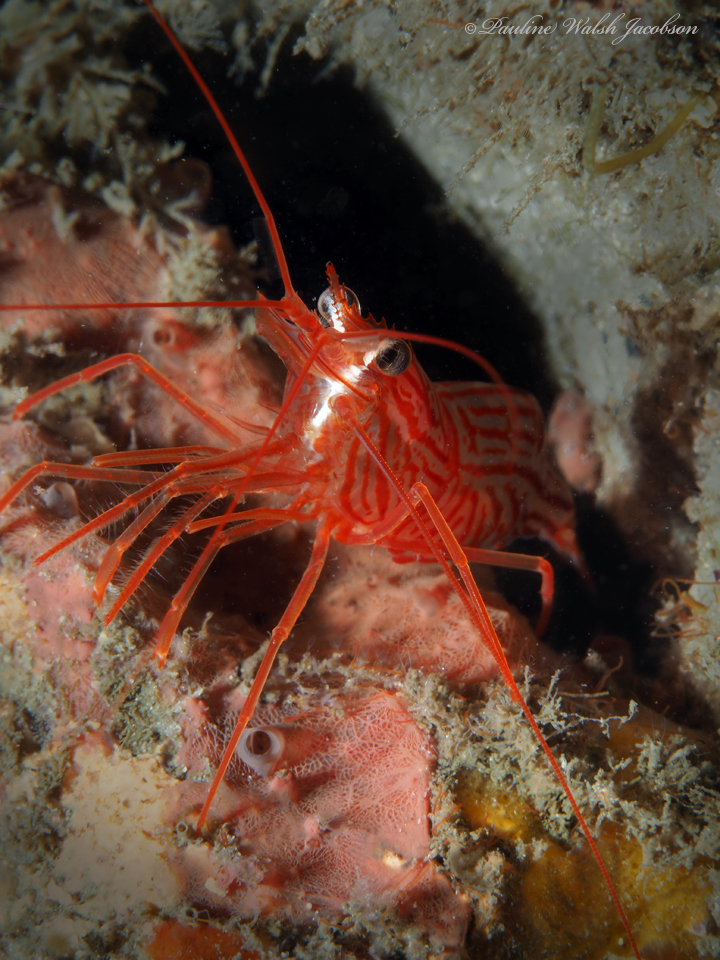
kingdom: Animalia
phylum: Porifera
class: Demospongiae
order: Verongiida
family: Ianthellidae
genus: Vansoestia
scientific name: Vansoestia caribensis
